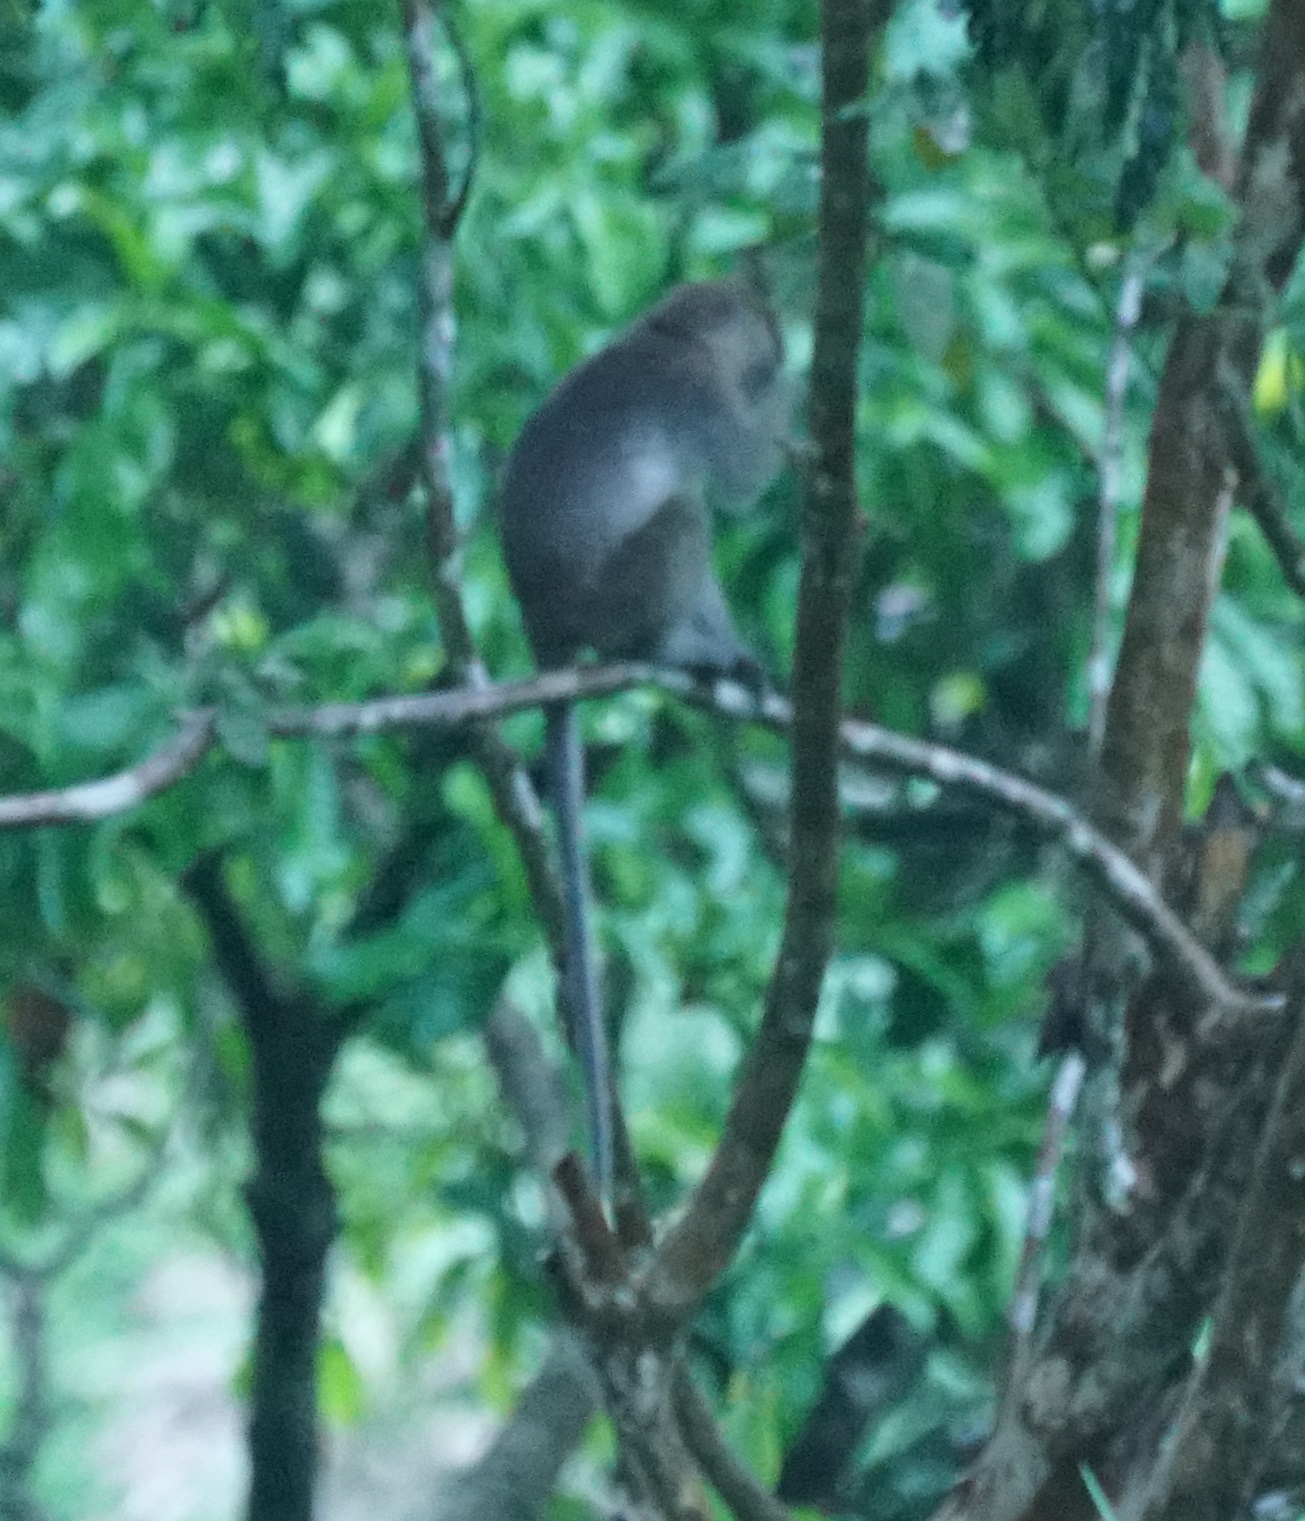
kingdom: Animalia
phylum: Chordata
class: Mammalia
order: Primates
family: Cercopithecidae
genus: Macaca
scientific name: Macaca fascicularis
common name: Crab-eating macaque
